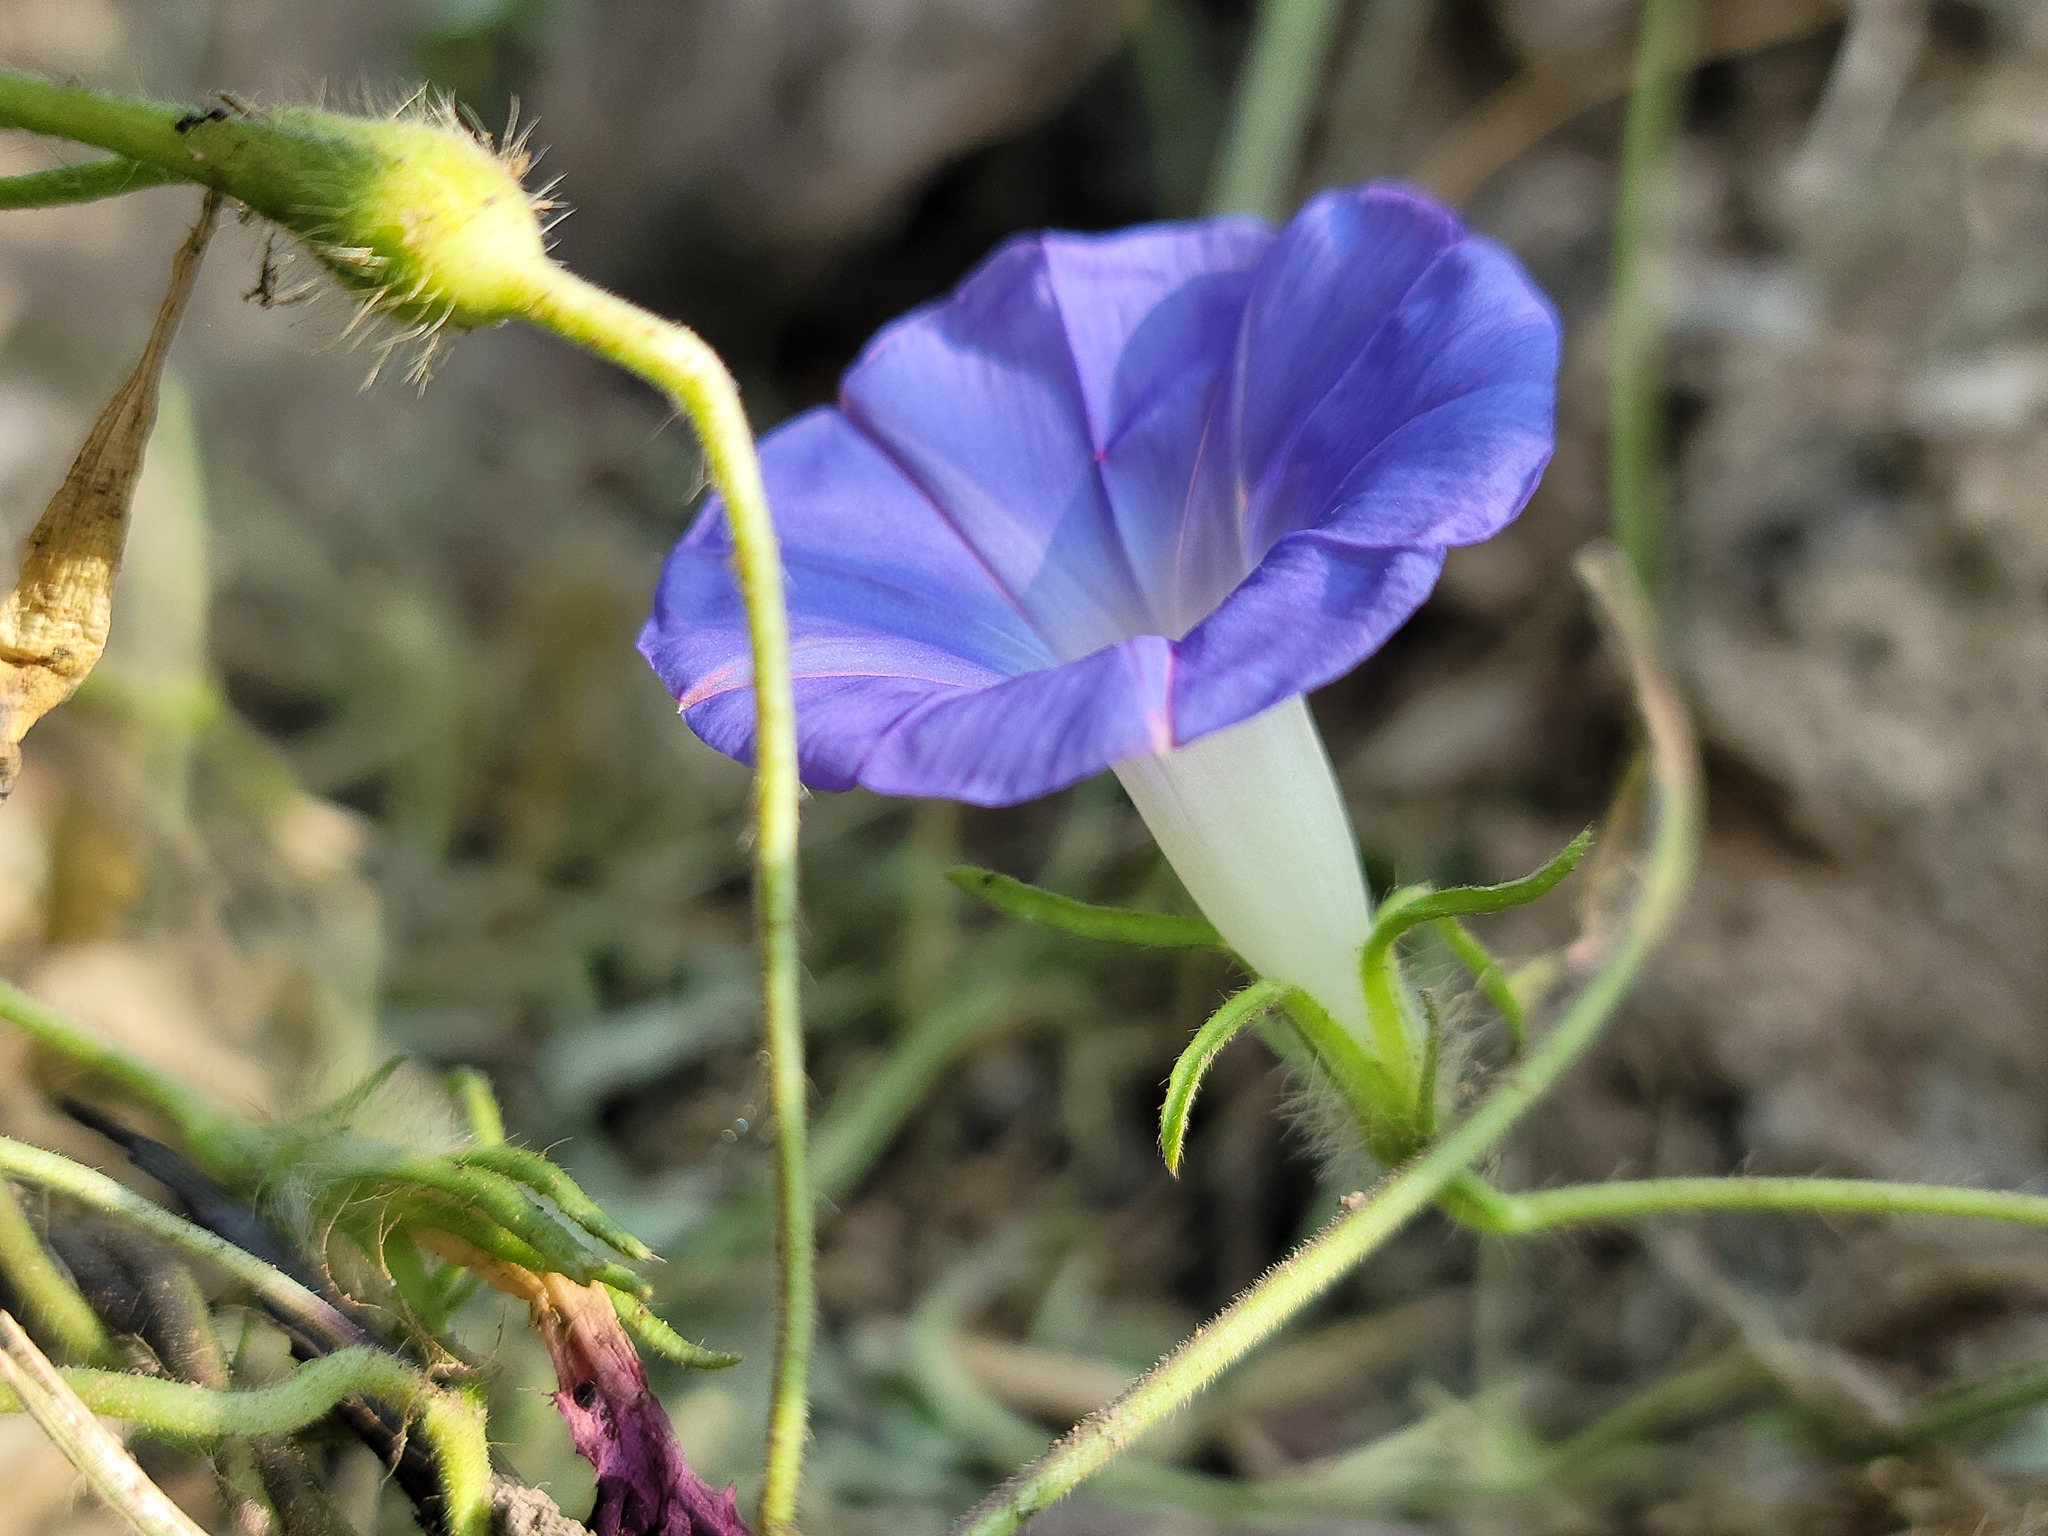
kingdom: Plantae
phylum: Tracheophyta
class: Magnoliopsida
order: Solanales
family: Convolvulaceae
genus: Ipomoea
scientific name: Ipomoea hederacea
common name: Ivy-leaved morning-glory
